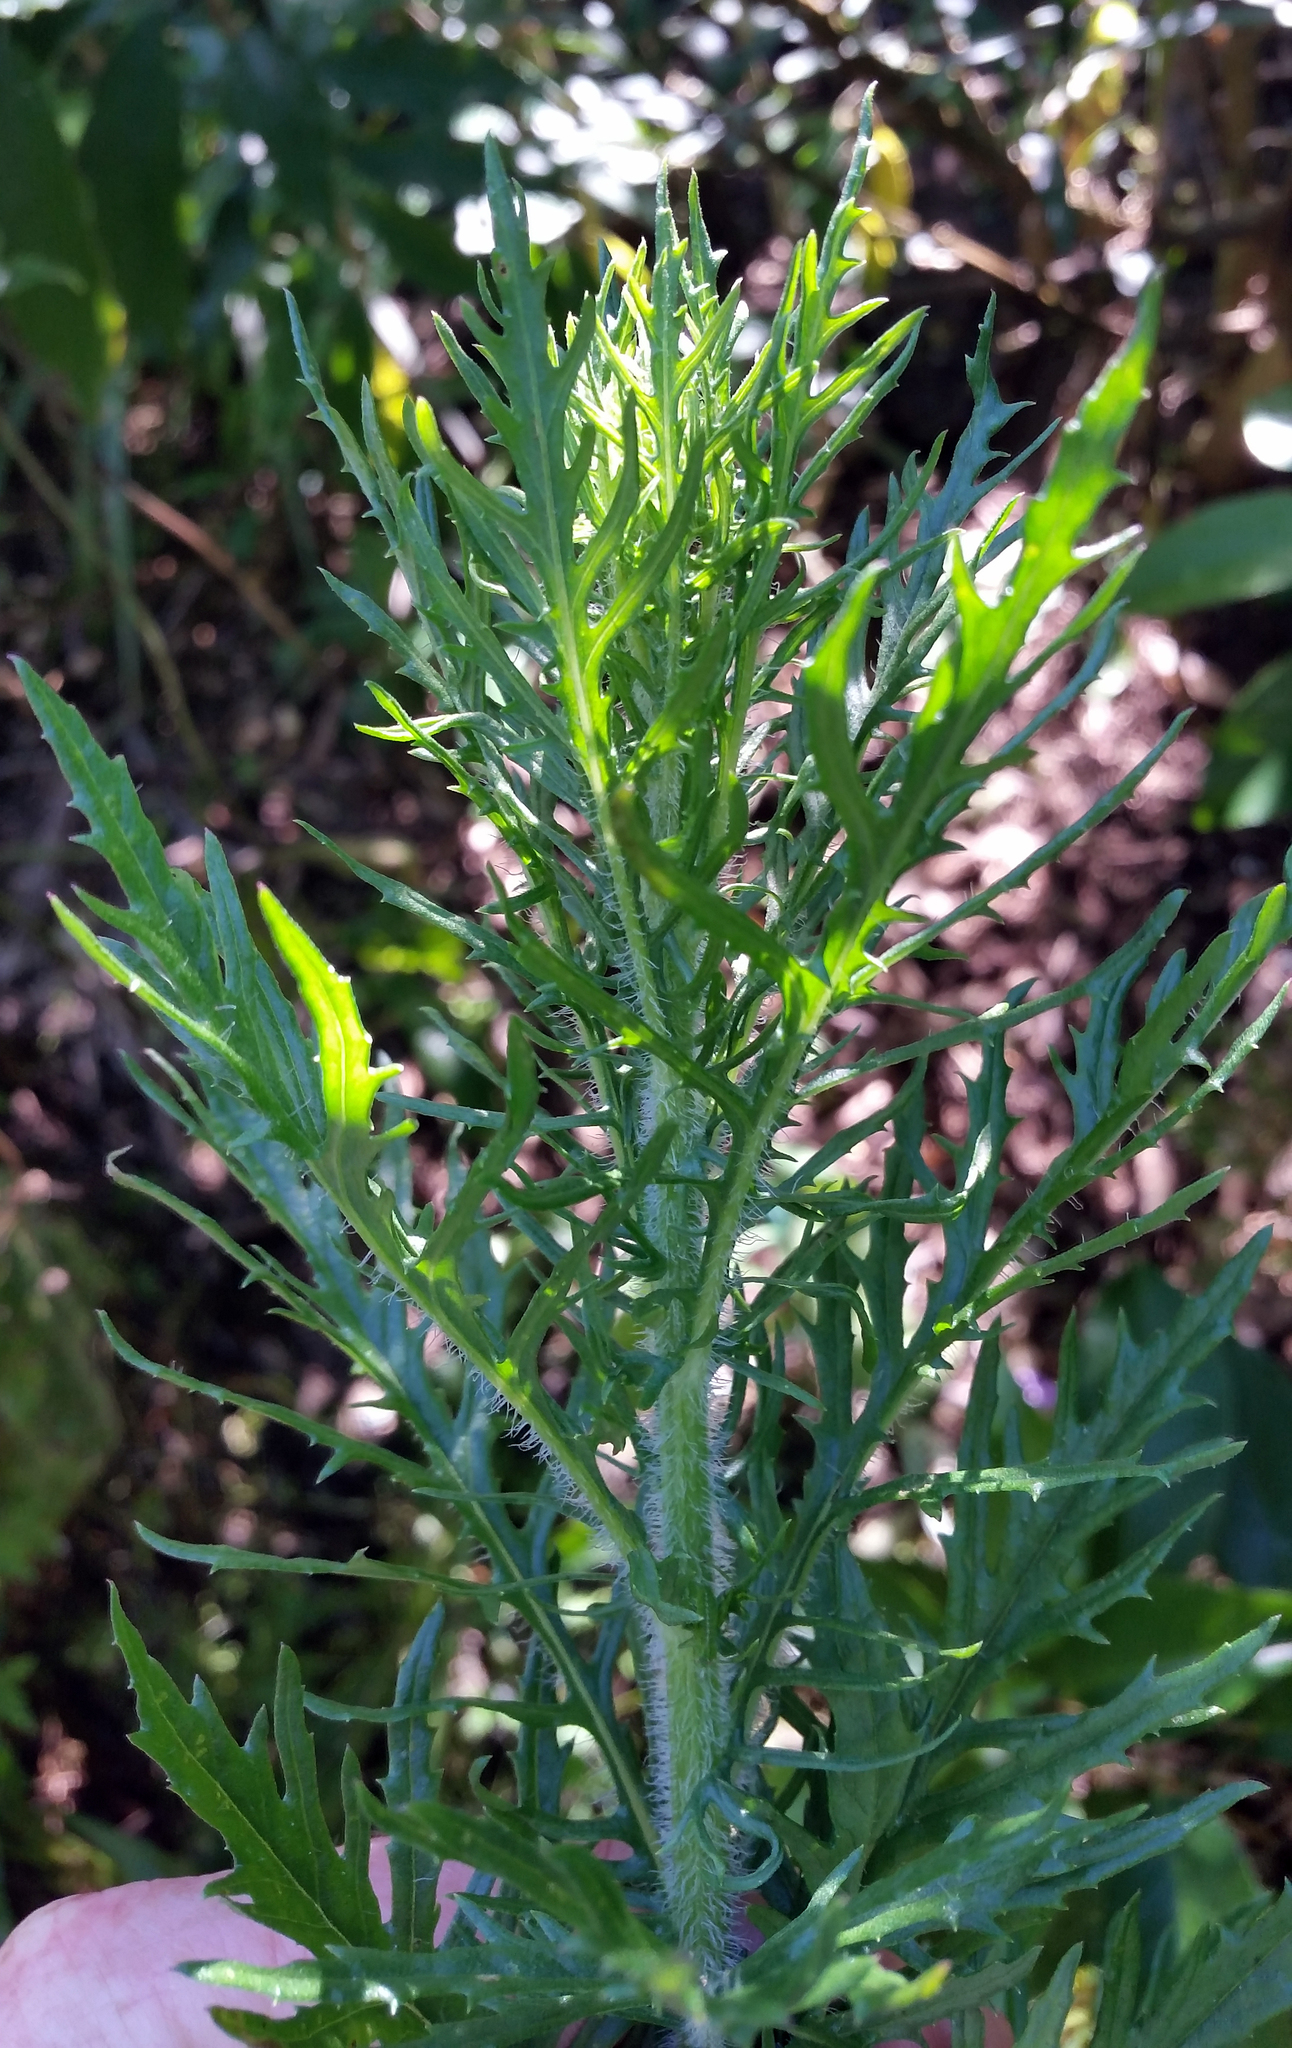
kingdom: Plantae
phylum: Tracheophyta
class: Magnoliopsida
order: Asterales
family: Asteraceae
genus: Senecio
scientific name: Senecio esleri
